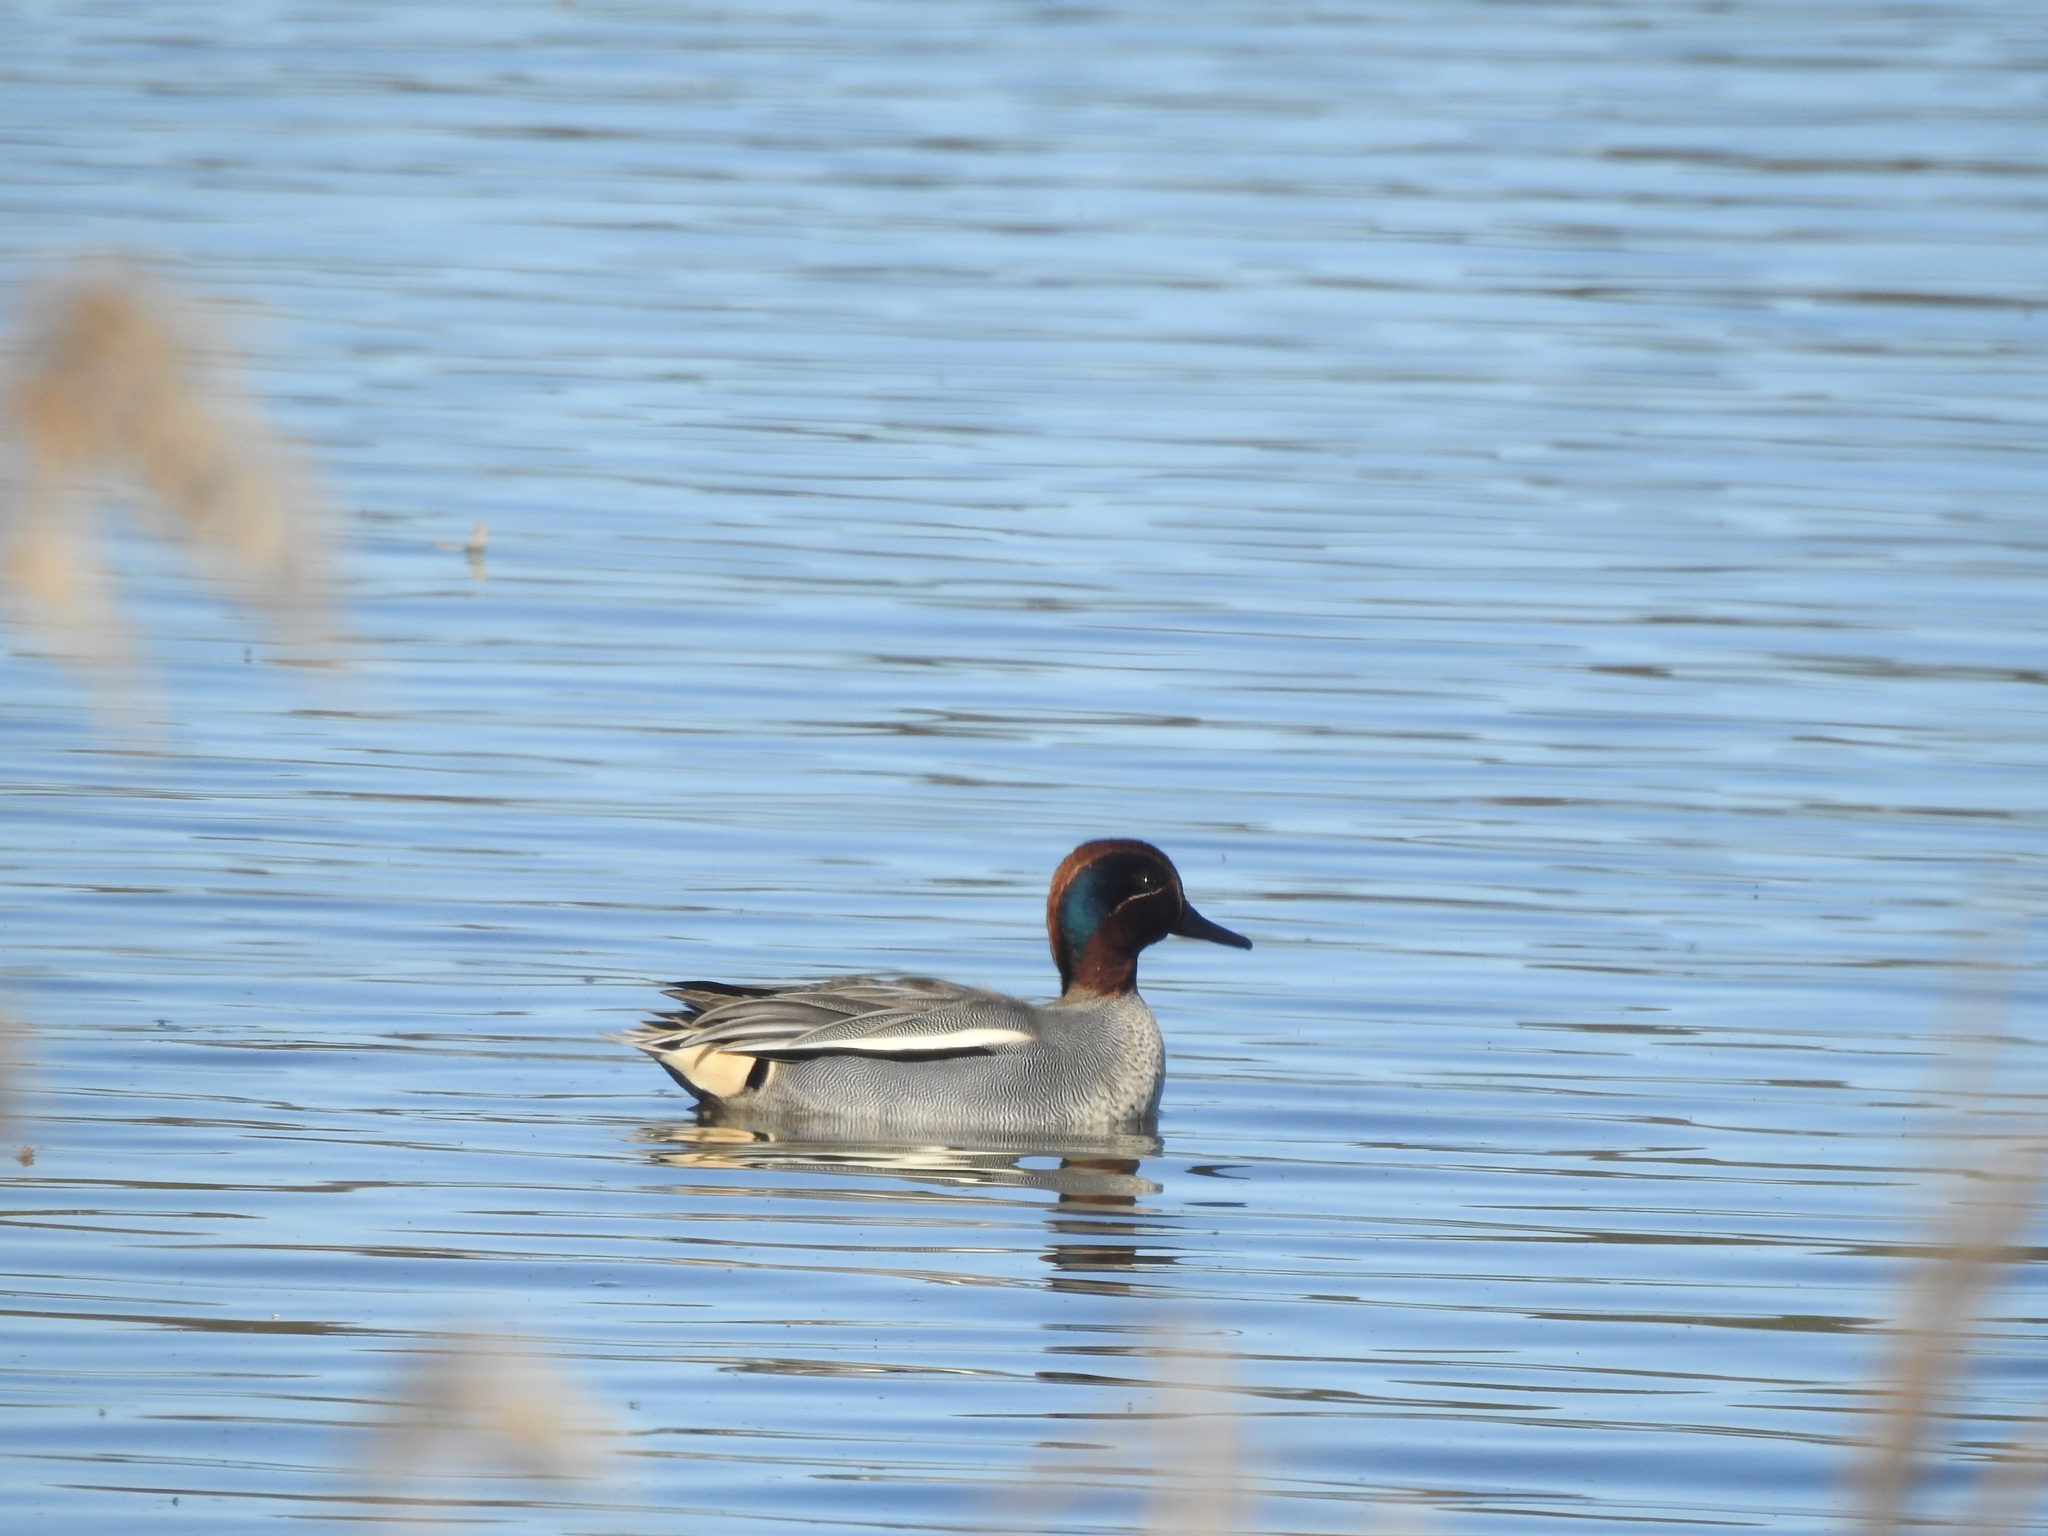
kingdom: Animalia
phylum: Chordata
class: Aves
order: Anseriformes
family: Anatidae
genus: Anas
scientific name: Anas crecca
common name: Eurasian teal
